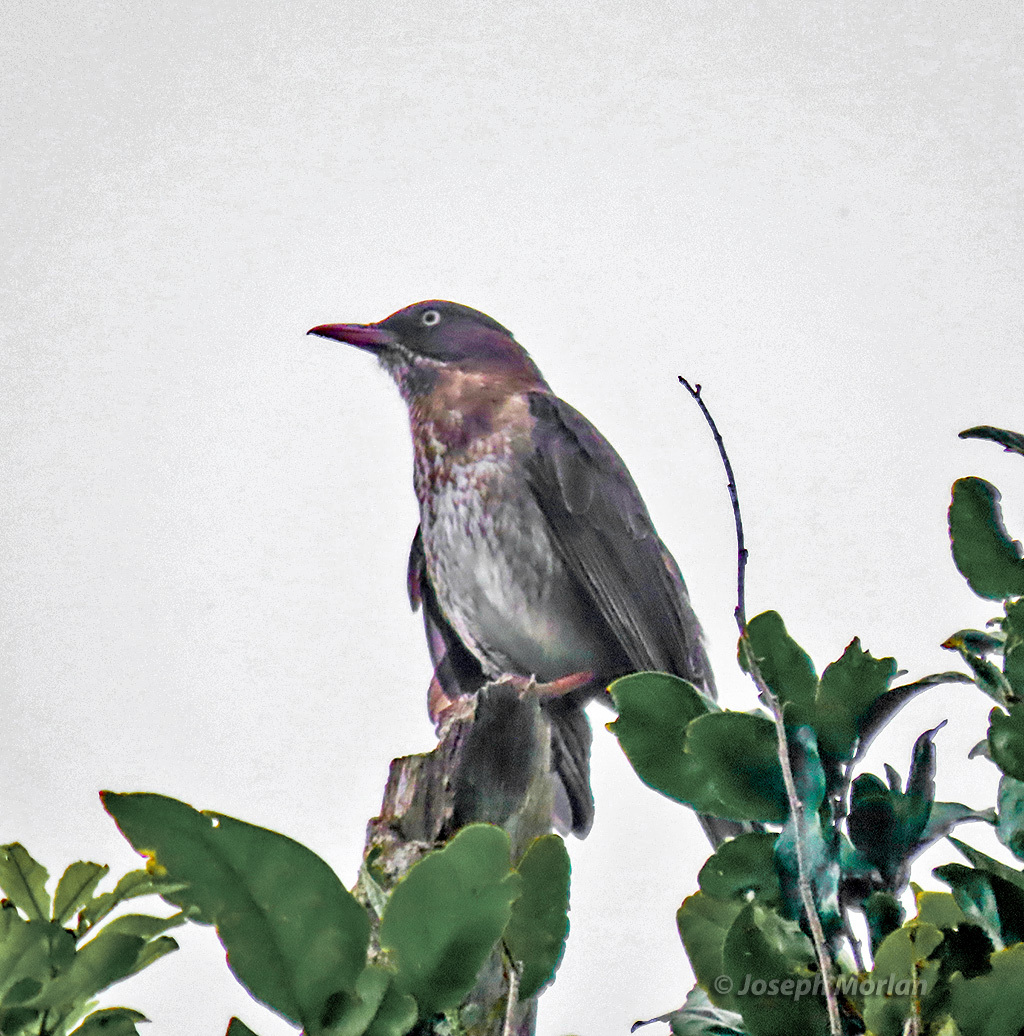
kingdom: Animalia
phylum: Chordata
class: Aves
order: Passeriformes
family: Mimidae
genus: Margarops
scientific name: Margarops fuscatus
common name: Pearly-eyed thrasher
